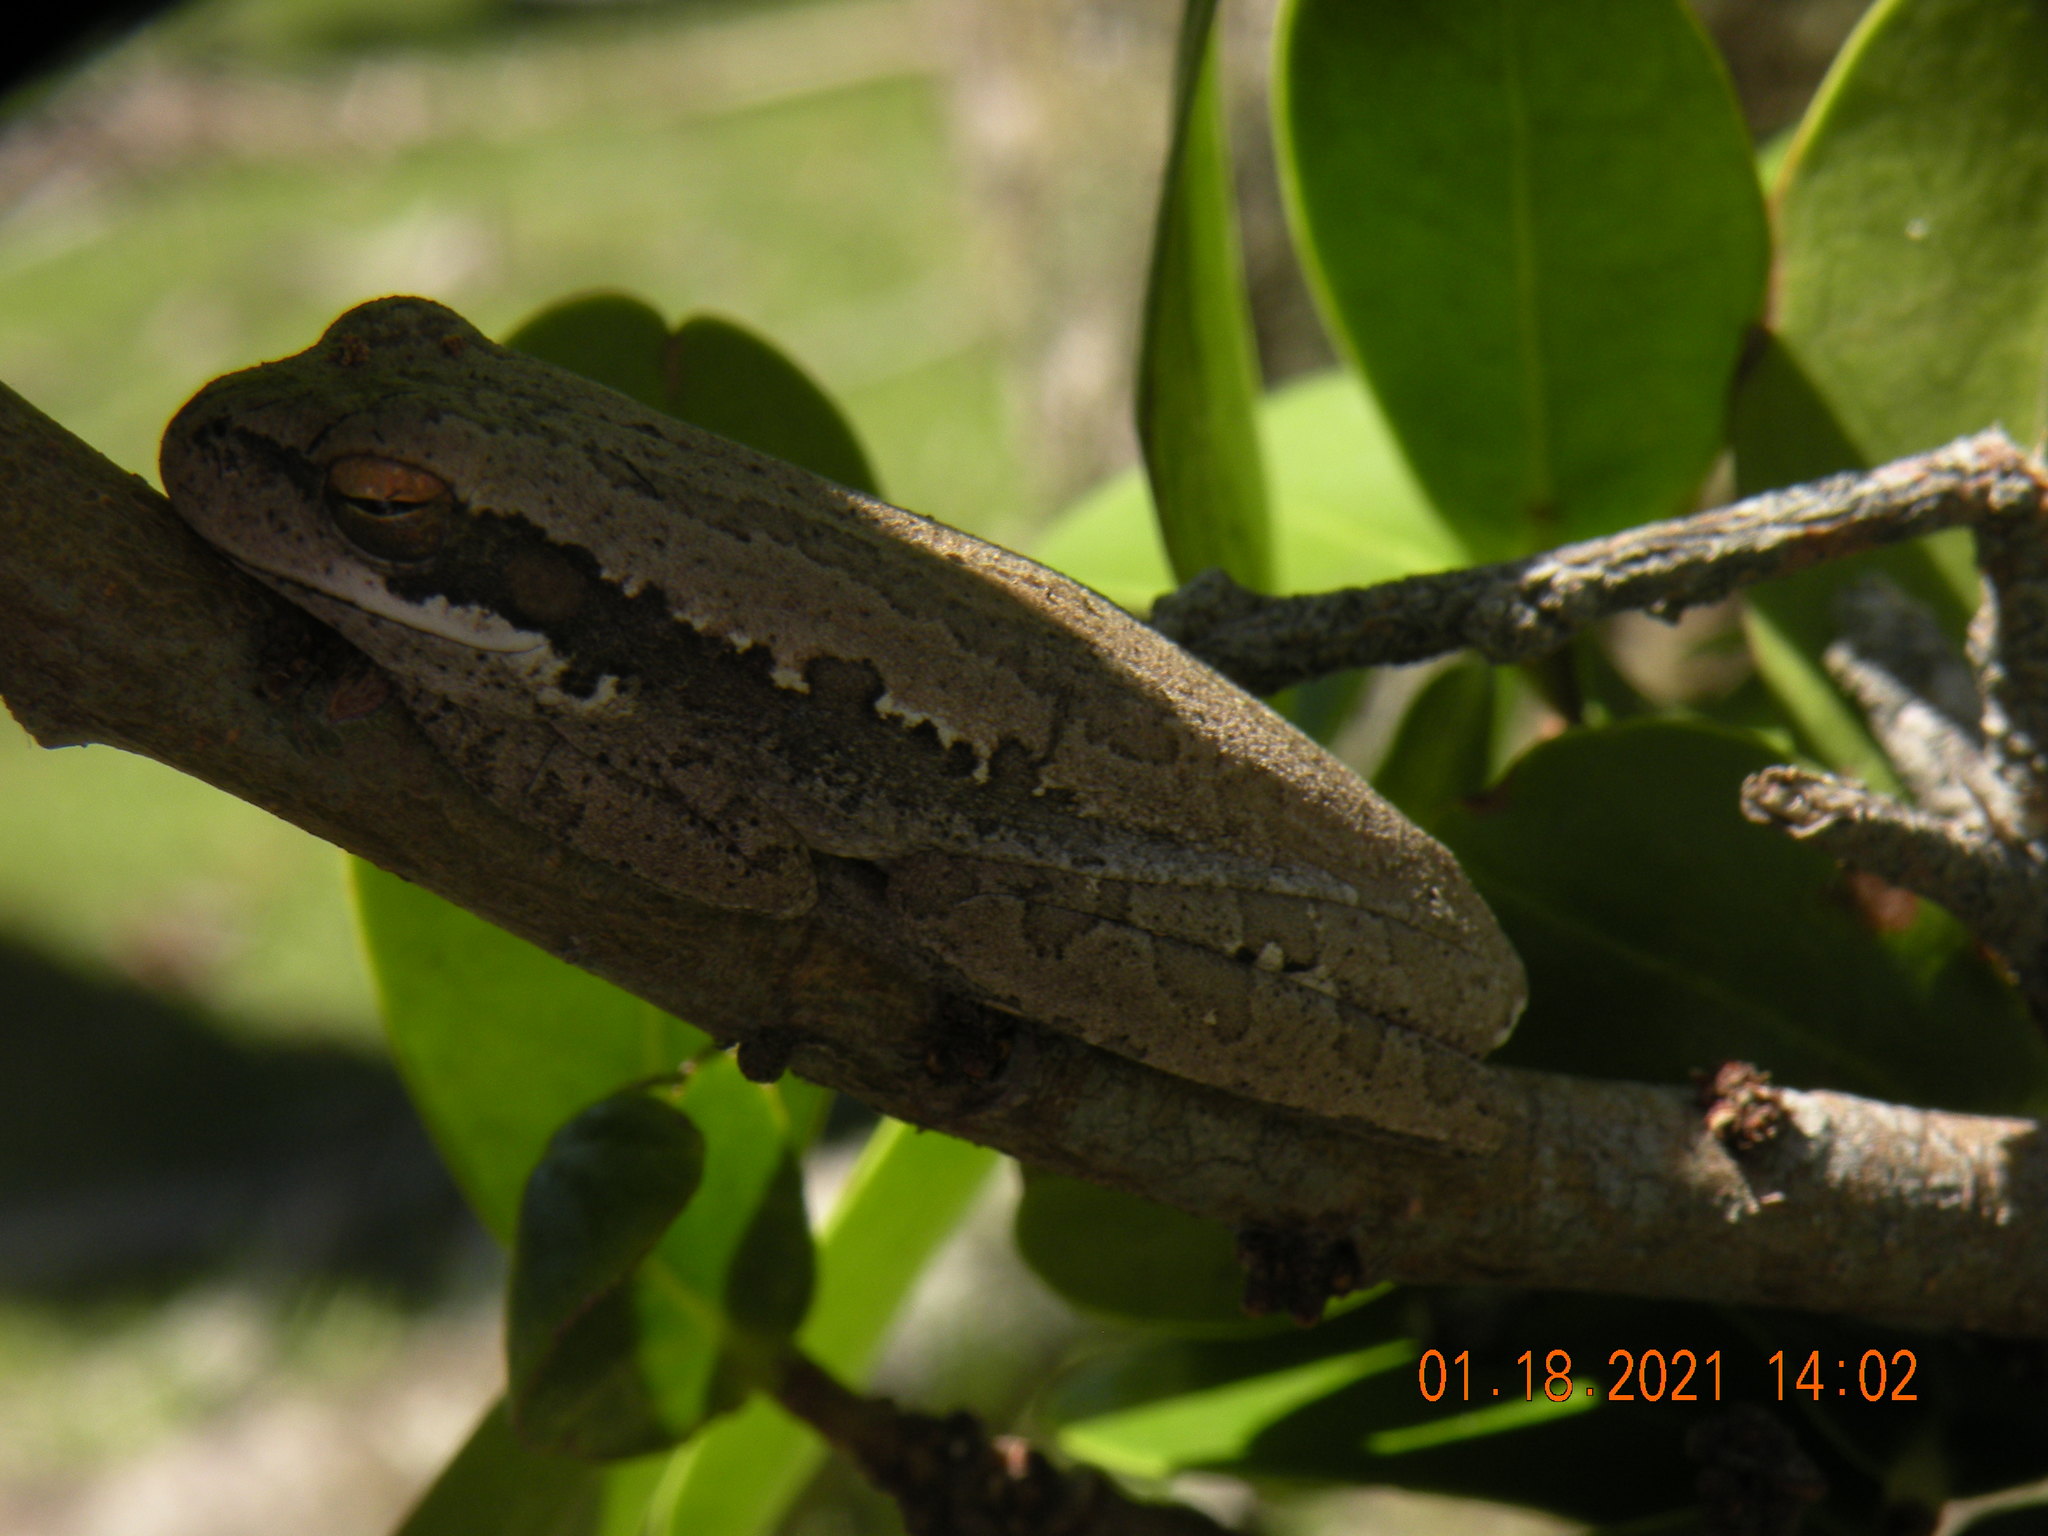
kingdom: Animalia
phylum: Chordata
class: Amphibia
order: Anura
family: Hylidae
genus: Boana
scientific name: Boana pulchella
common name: Montevideo treefrog
